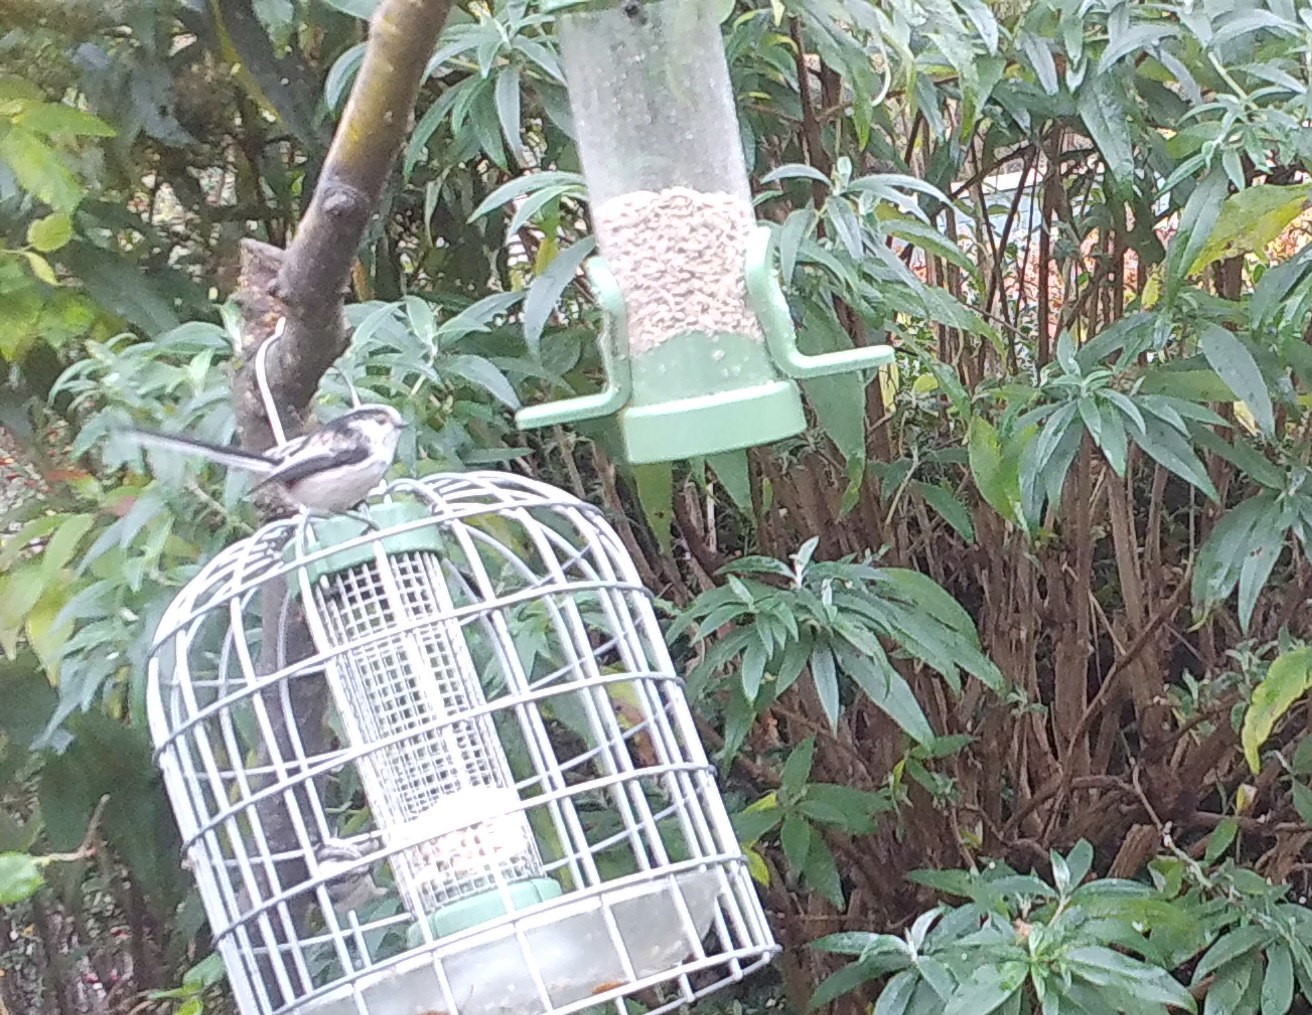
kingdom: Animalia
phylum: Chordata
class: Aves
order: Passeriformes
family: Aegithalidae
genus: Aegithalos
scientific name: Aegithalos caudatus
